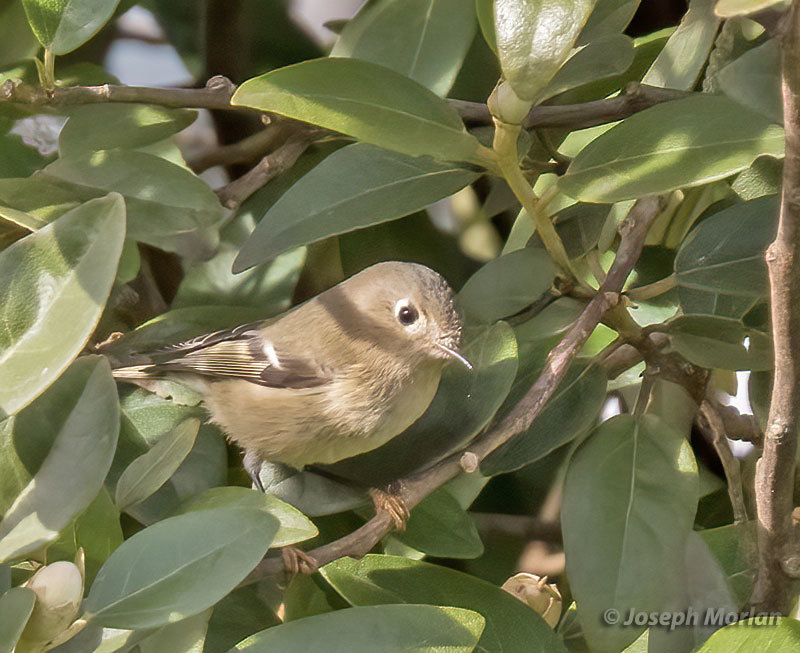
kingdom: Animalia
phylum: Chordata
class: Aves
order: Passeriformes
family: Regulidae
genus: Regulus
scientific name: Regulus calendula
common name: Ruby-crowned kinglet
